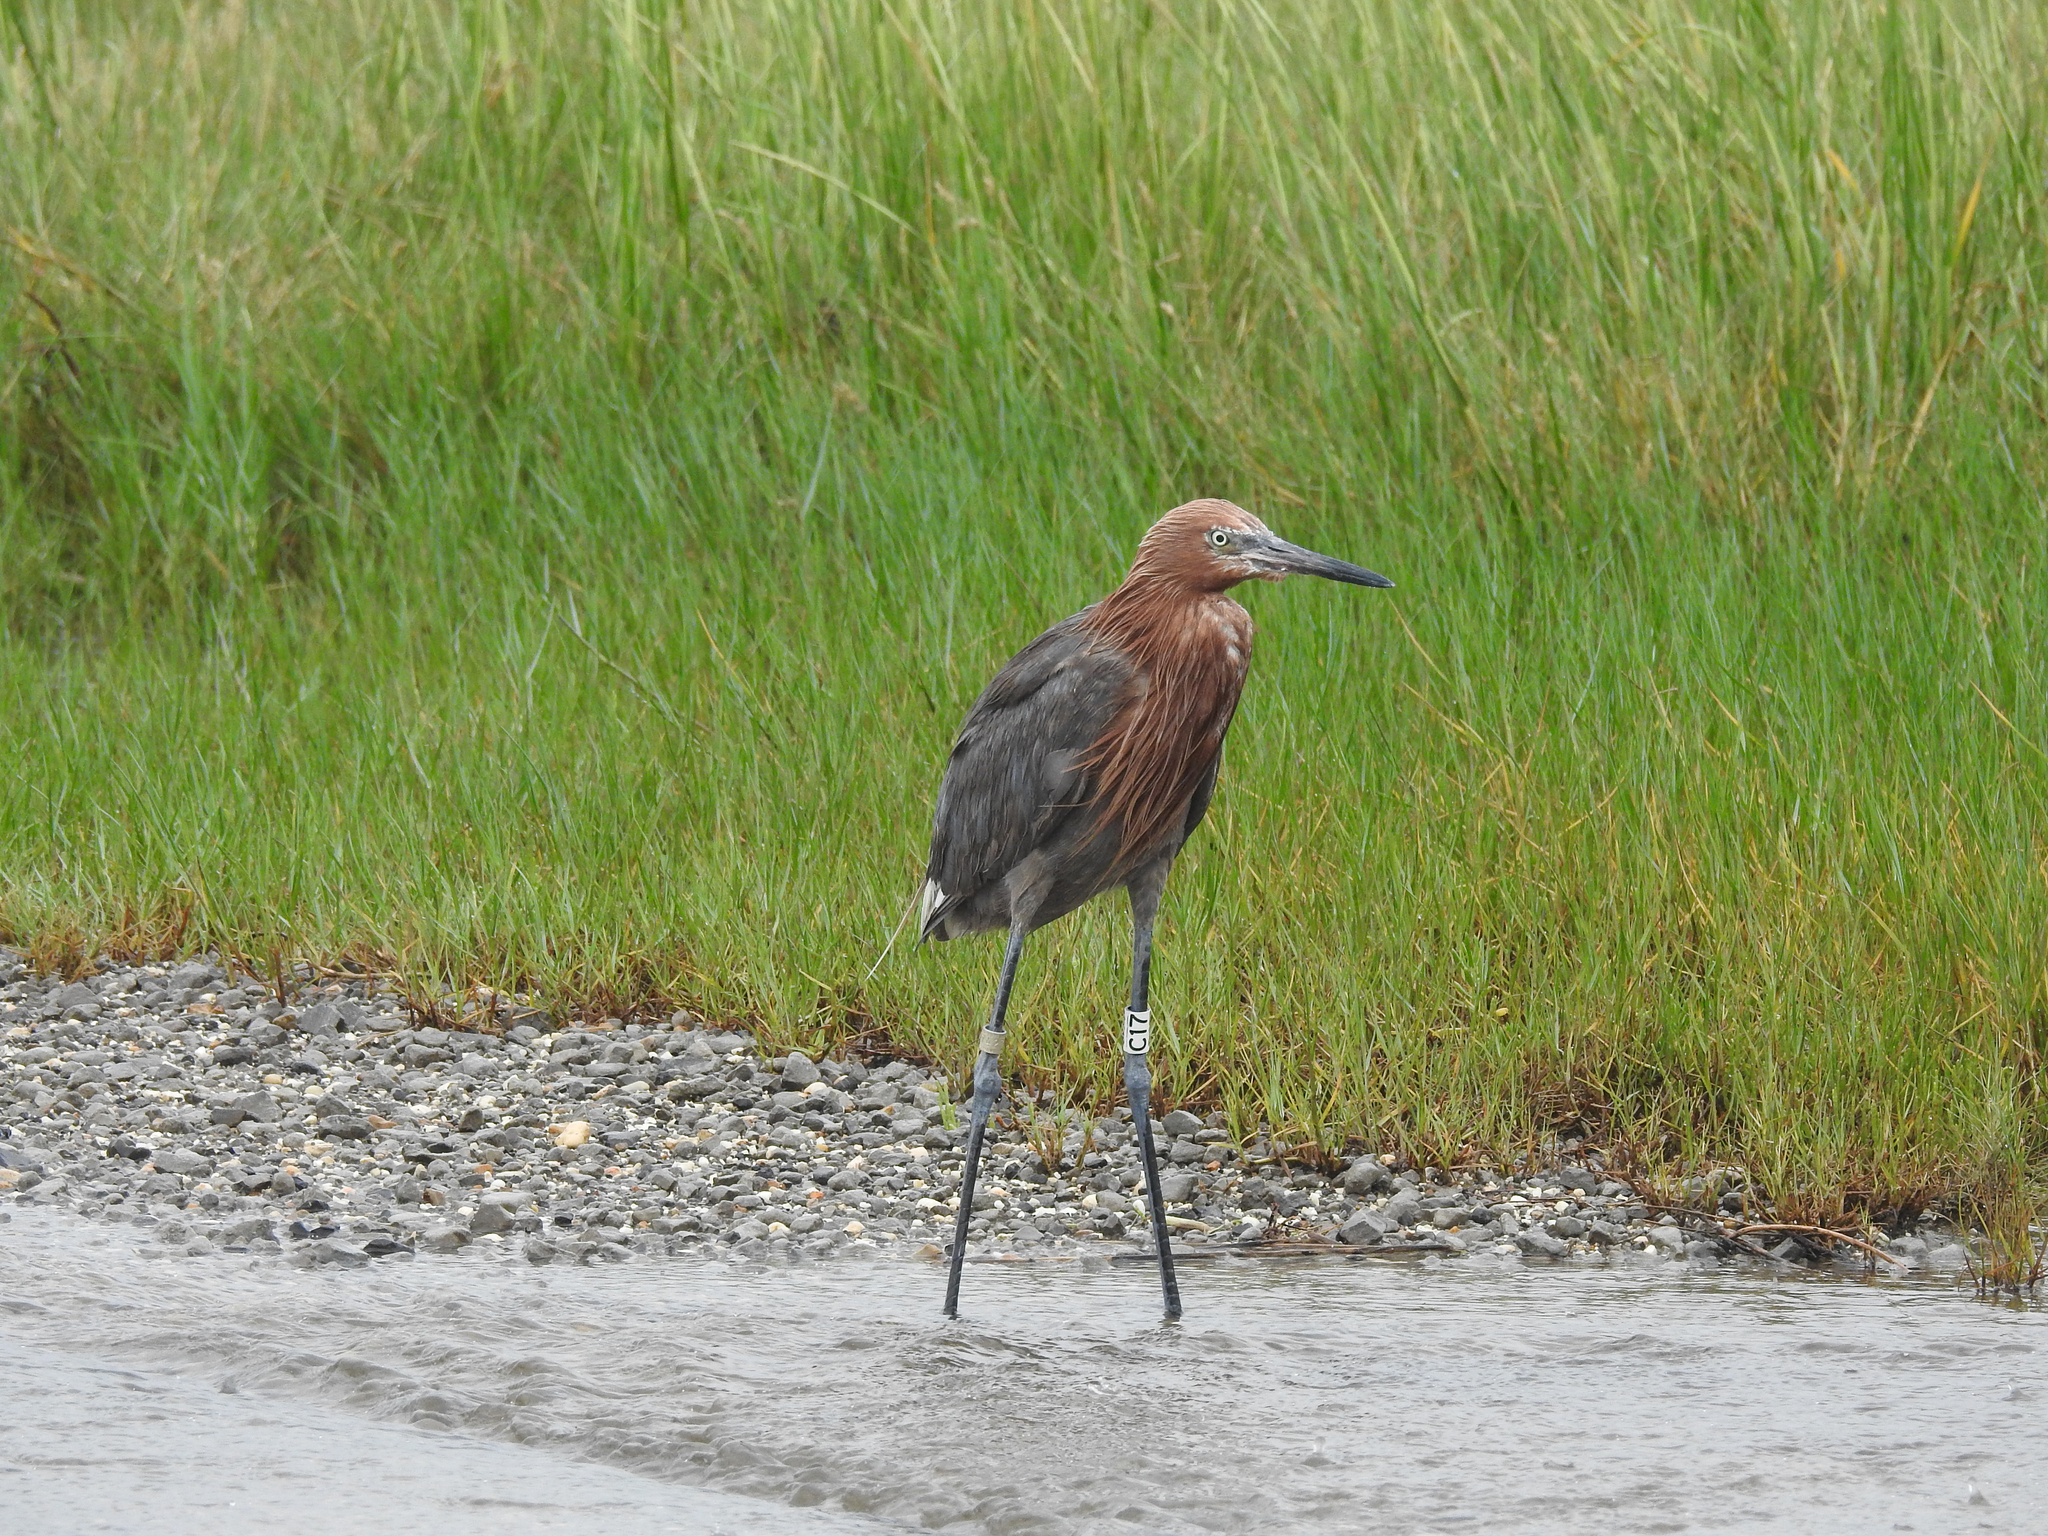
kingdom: Animalia
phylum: Chordata
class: Aves
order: Pelecaniformes
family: Ardeidae
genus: Egretta
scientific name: Egretta rufescens
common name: Reddish egret
